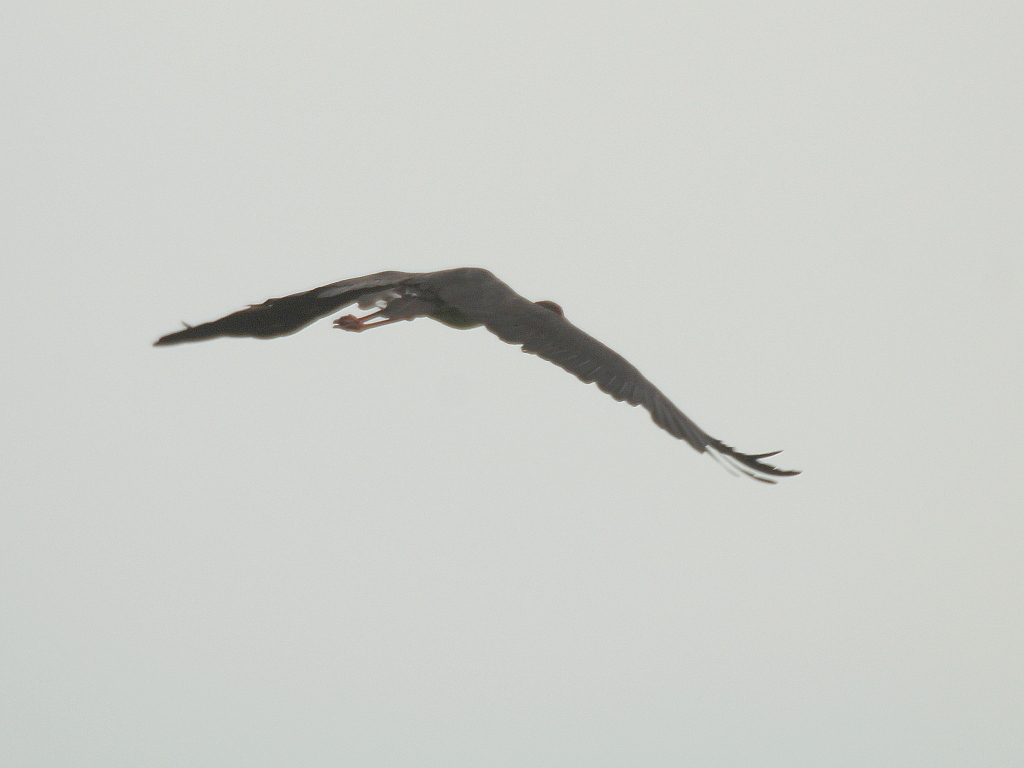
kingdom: Animalia
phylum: Chordata
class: Aves
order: Ciconiiformes
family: Ciconiidae
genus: Ciconia
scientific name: Ciconia nigra
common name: Black stork
